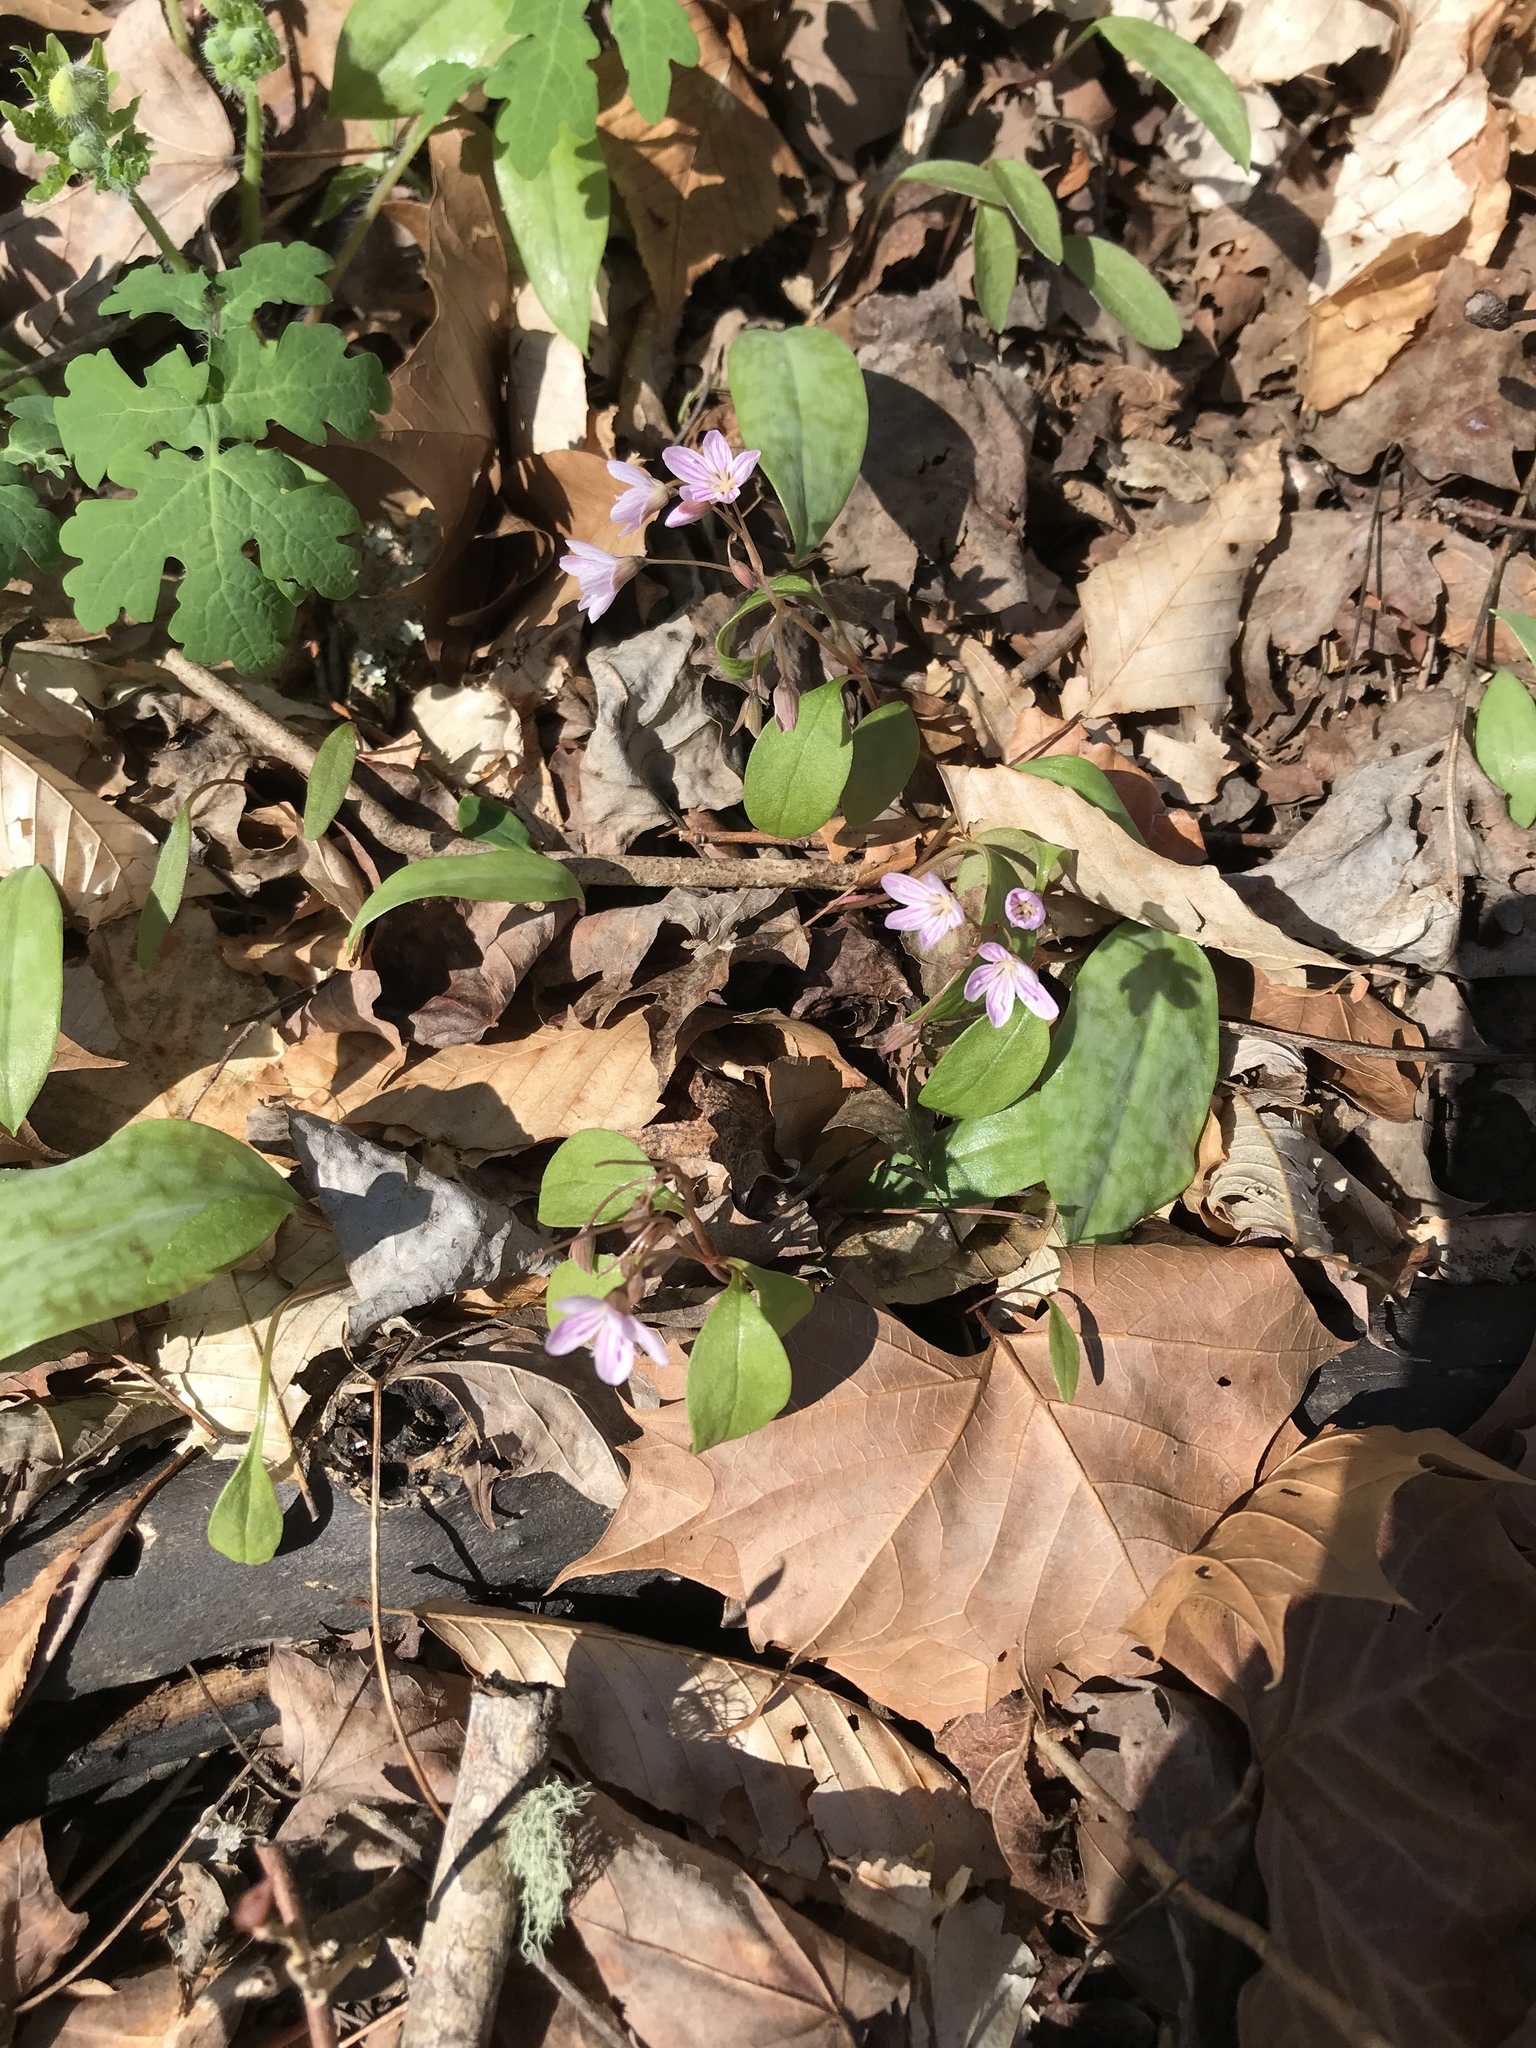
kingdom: Plantae
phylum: Tracheophyta
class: Magnoliopsida
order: Caryophyllales
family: Montiaceae
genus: Claytonia
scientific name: Claytonia caroliniana
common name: Carolina spring beauty
